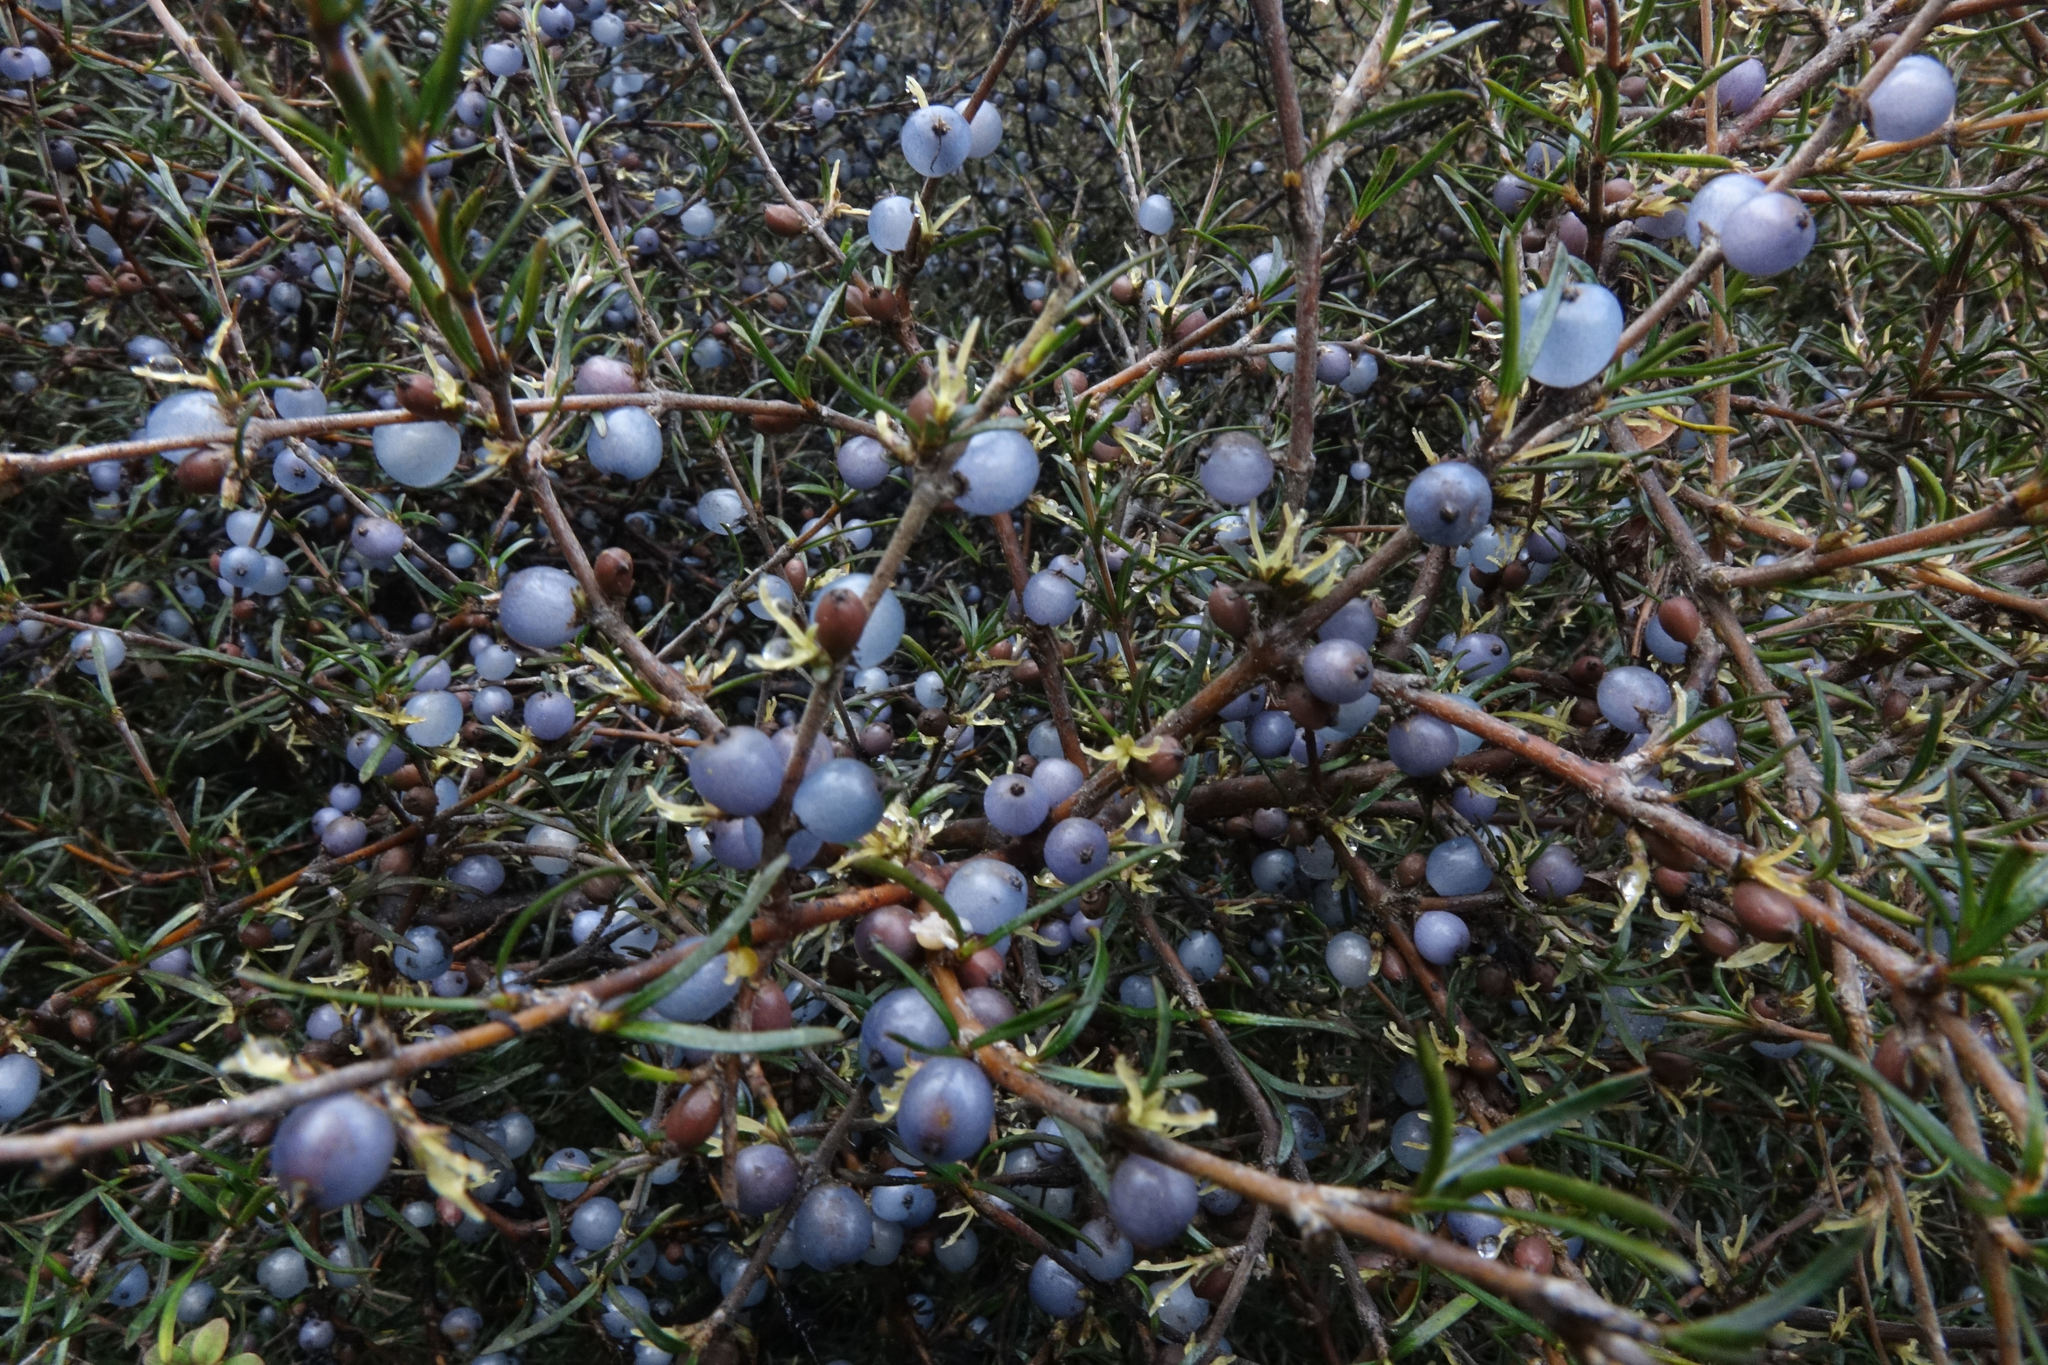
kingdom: Plantae
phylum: Tracheophyta
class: Magnoliopsida
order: Gentianales
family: Rubiaceae
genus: Coprosma
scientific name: Coprosma rugosa
